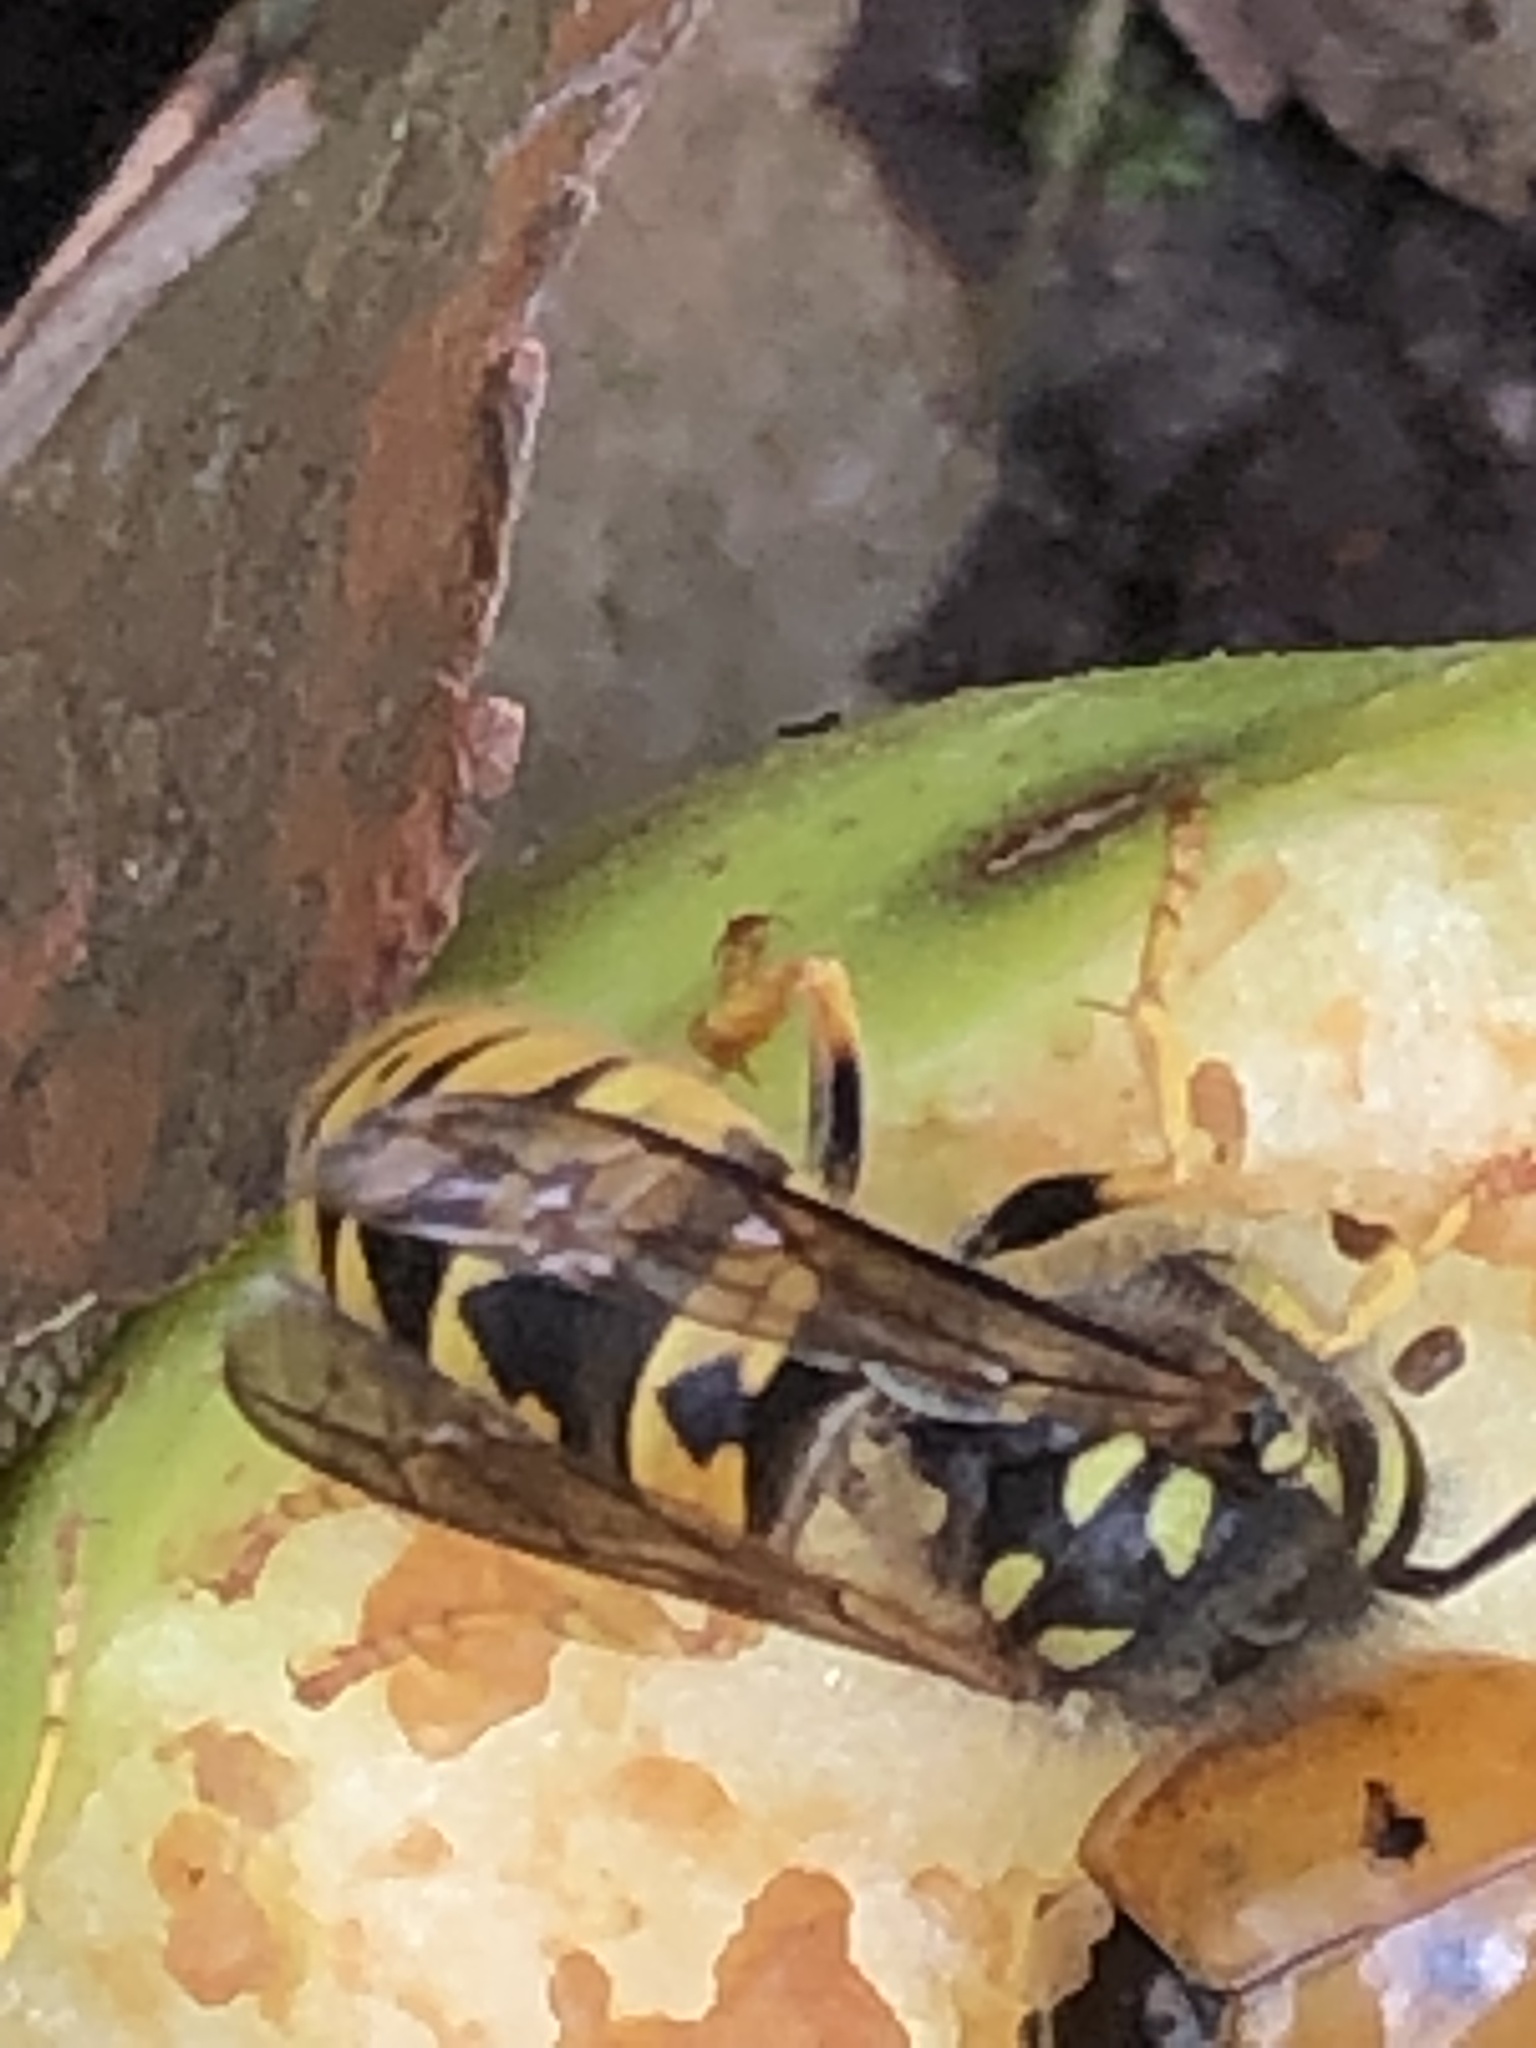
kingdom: Animalia
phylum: Arthropoda
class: Insecta
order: Hymenoptera
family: Vespidae
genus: Vespula
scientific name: Vespula germanica
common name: German wasp
